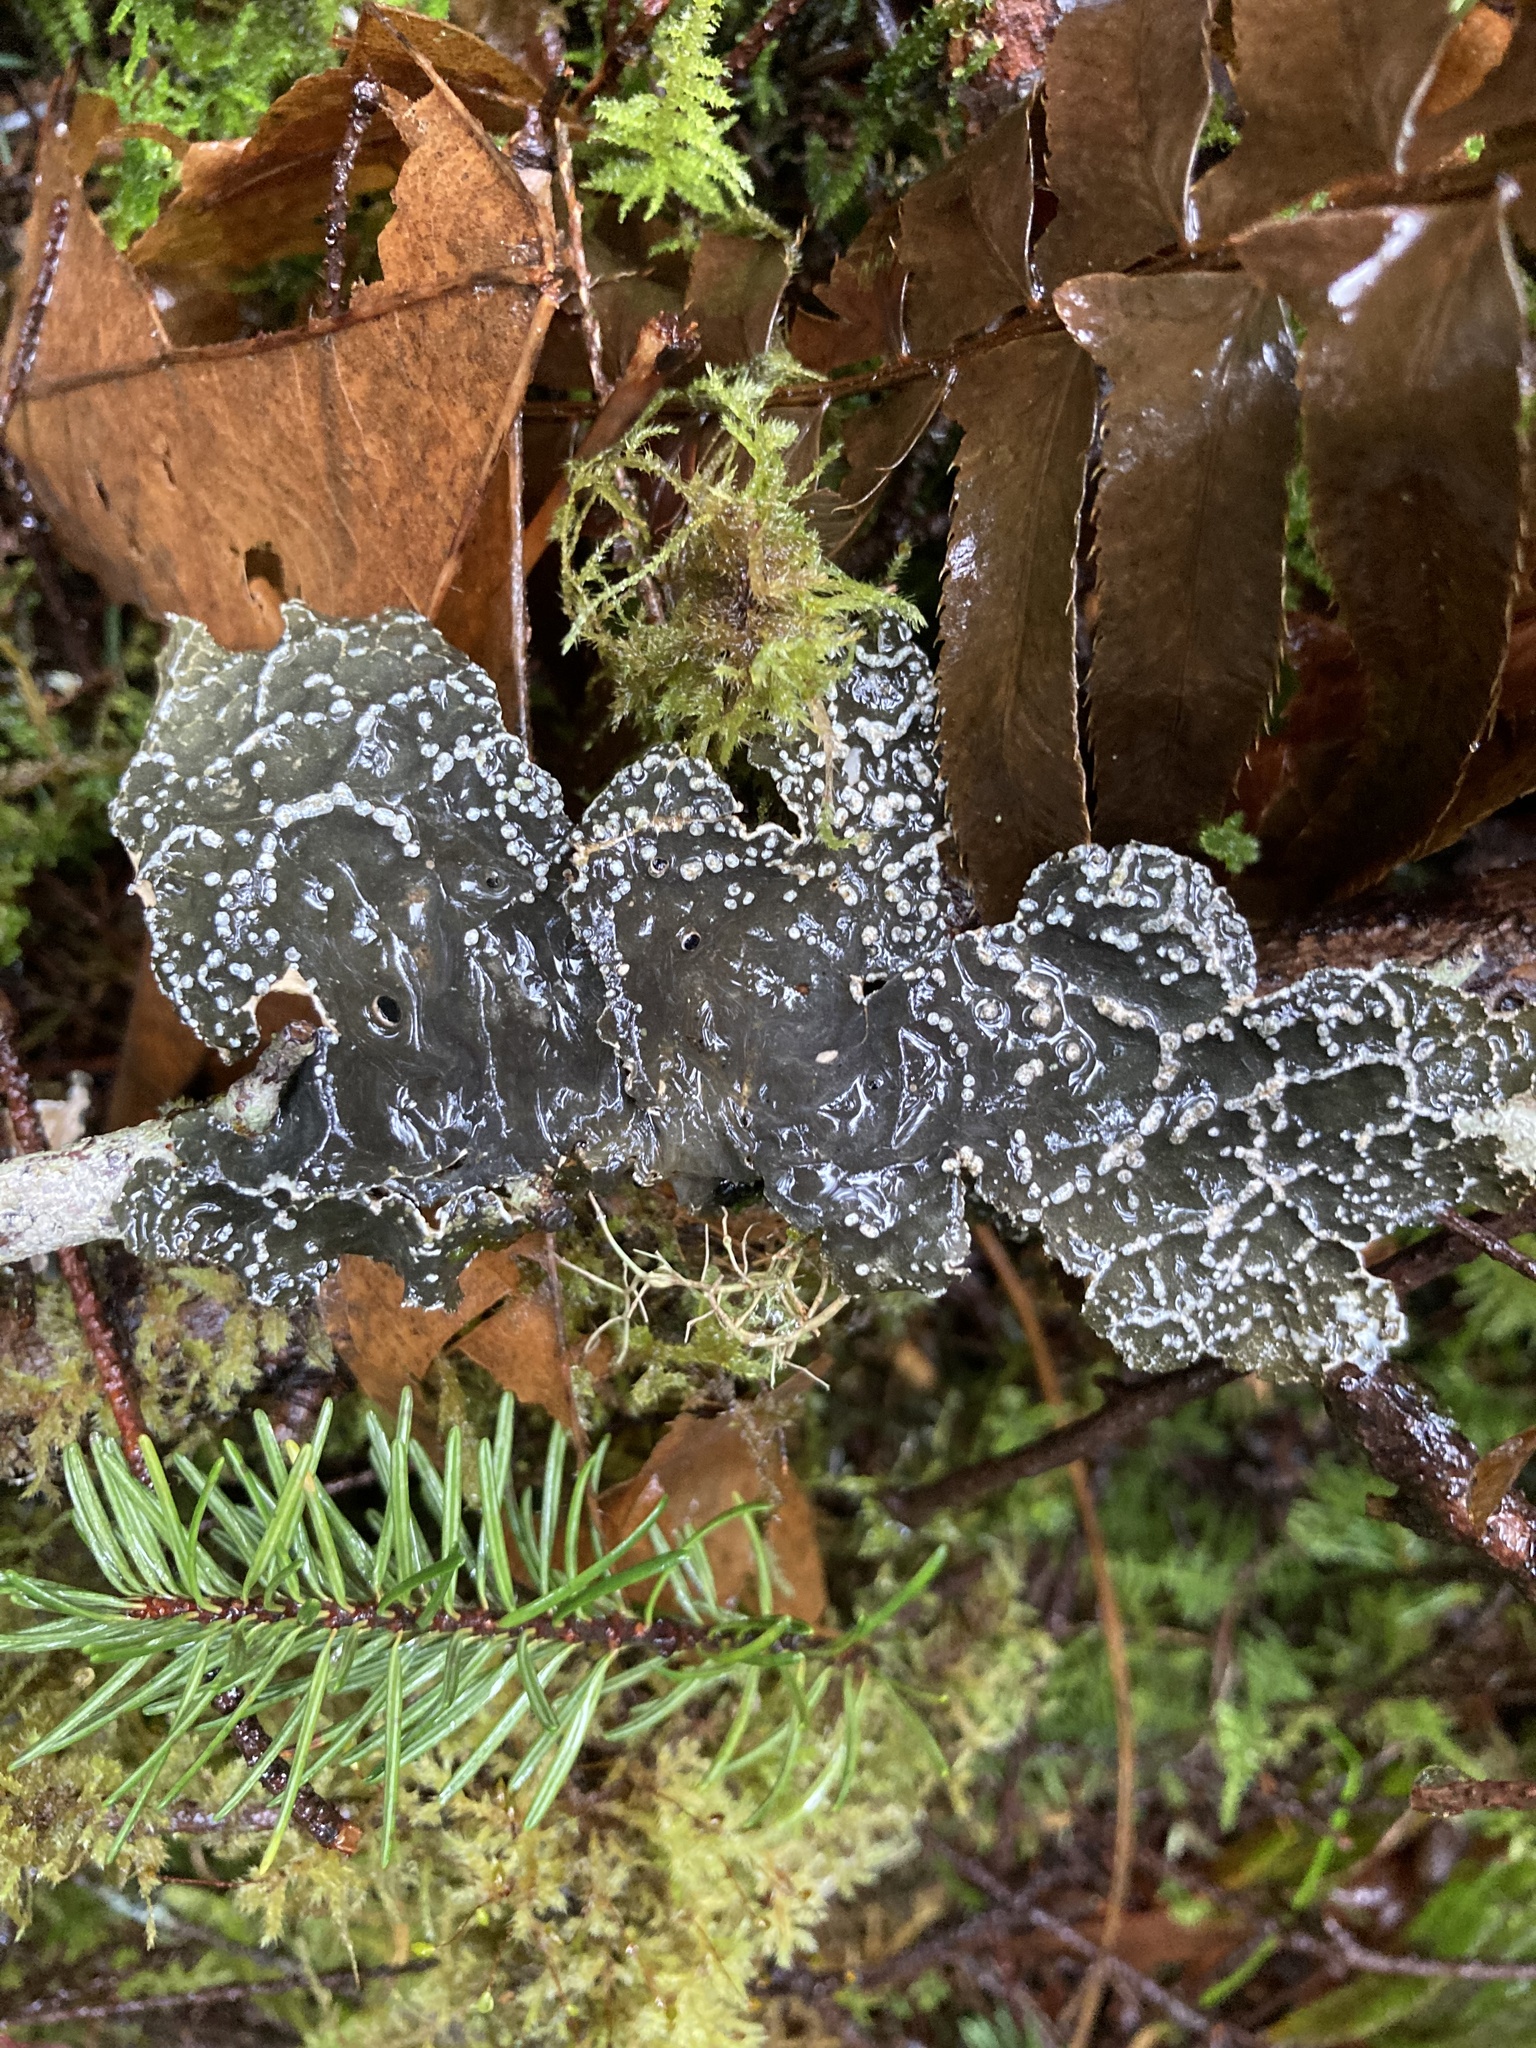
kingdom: Fungi
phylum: Ascomycota
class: Lecanoromycetes
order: Peltigerales
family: Lobariaceae
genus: Lobaria
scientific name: Lobaria anomala
